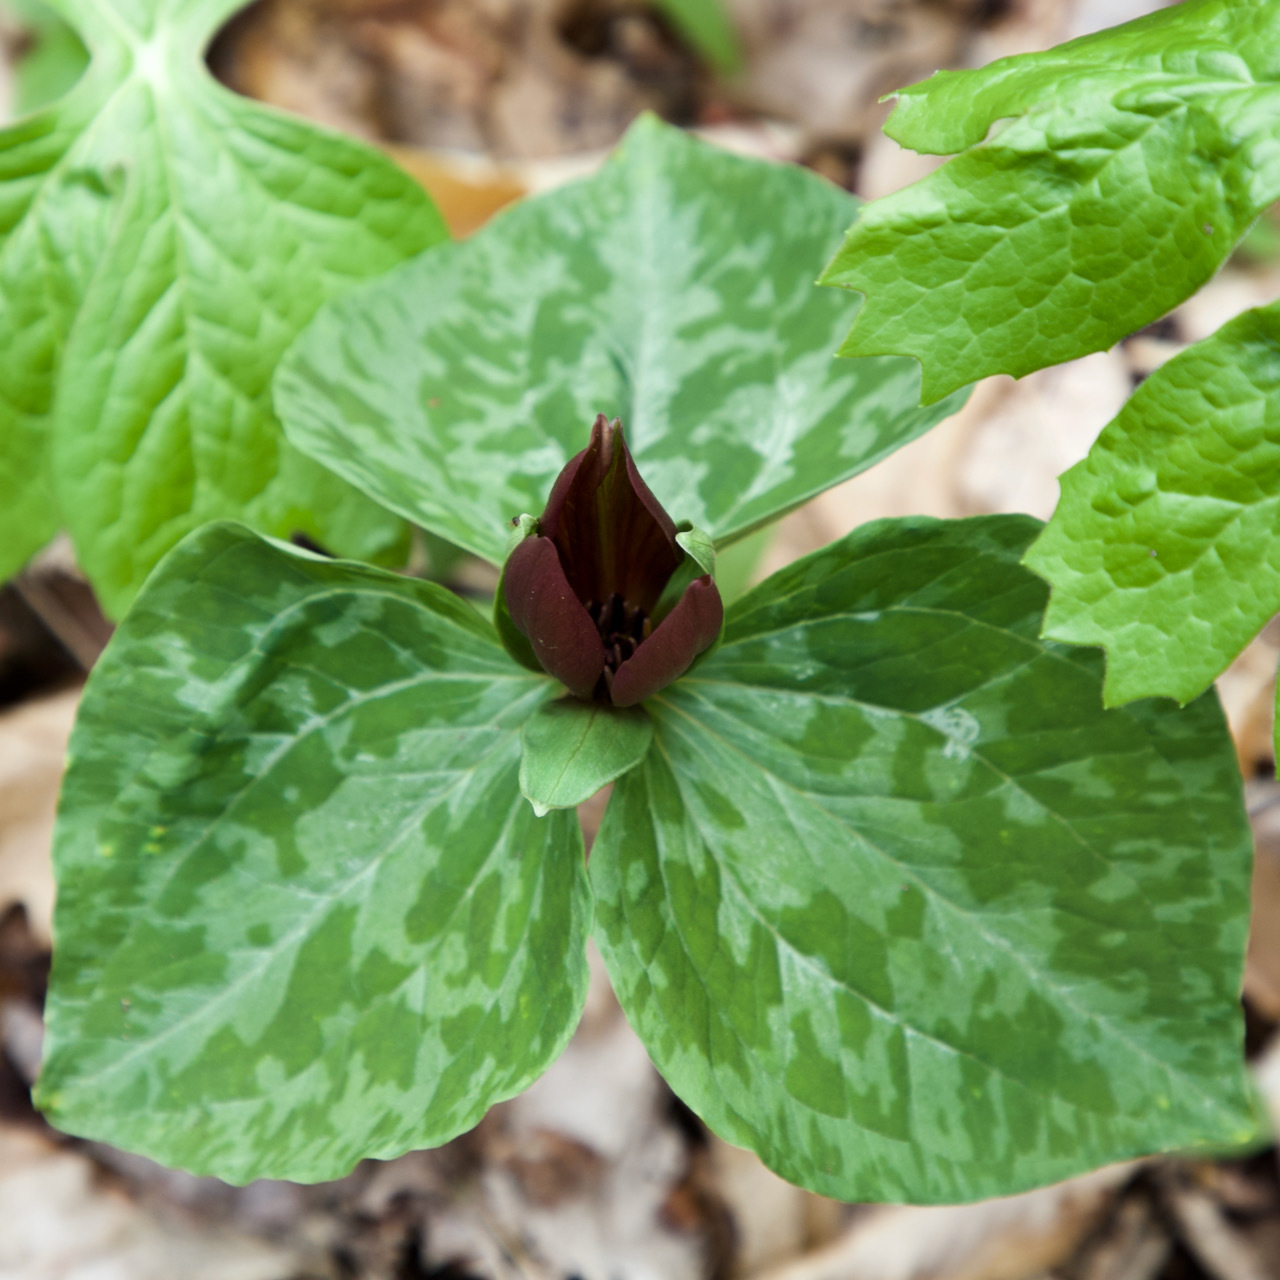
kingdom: Plantae
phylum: Tracheophyta
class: Liliopsida
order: Liliales
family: Melanthiaceae
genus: Trillium
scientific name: Trillium cuneatum
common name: Cuneate trillium
